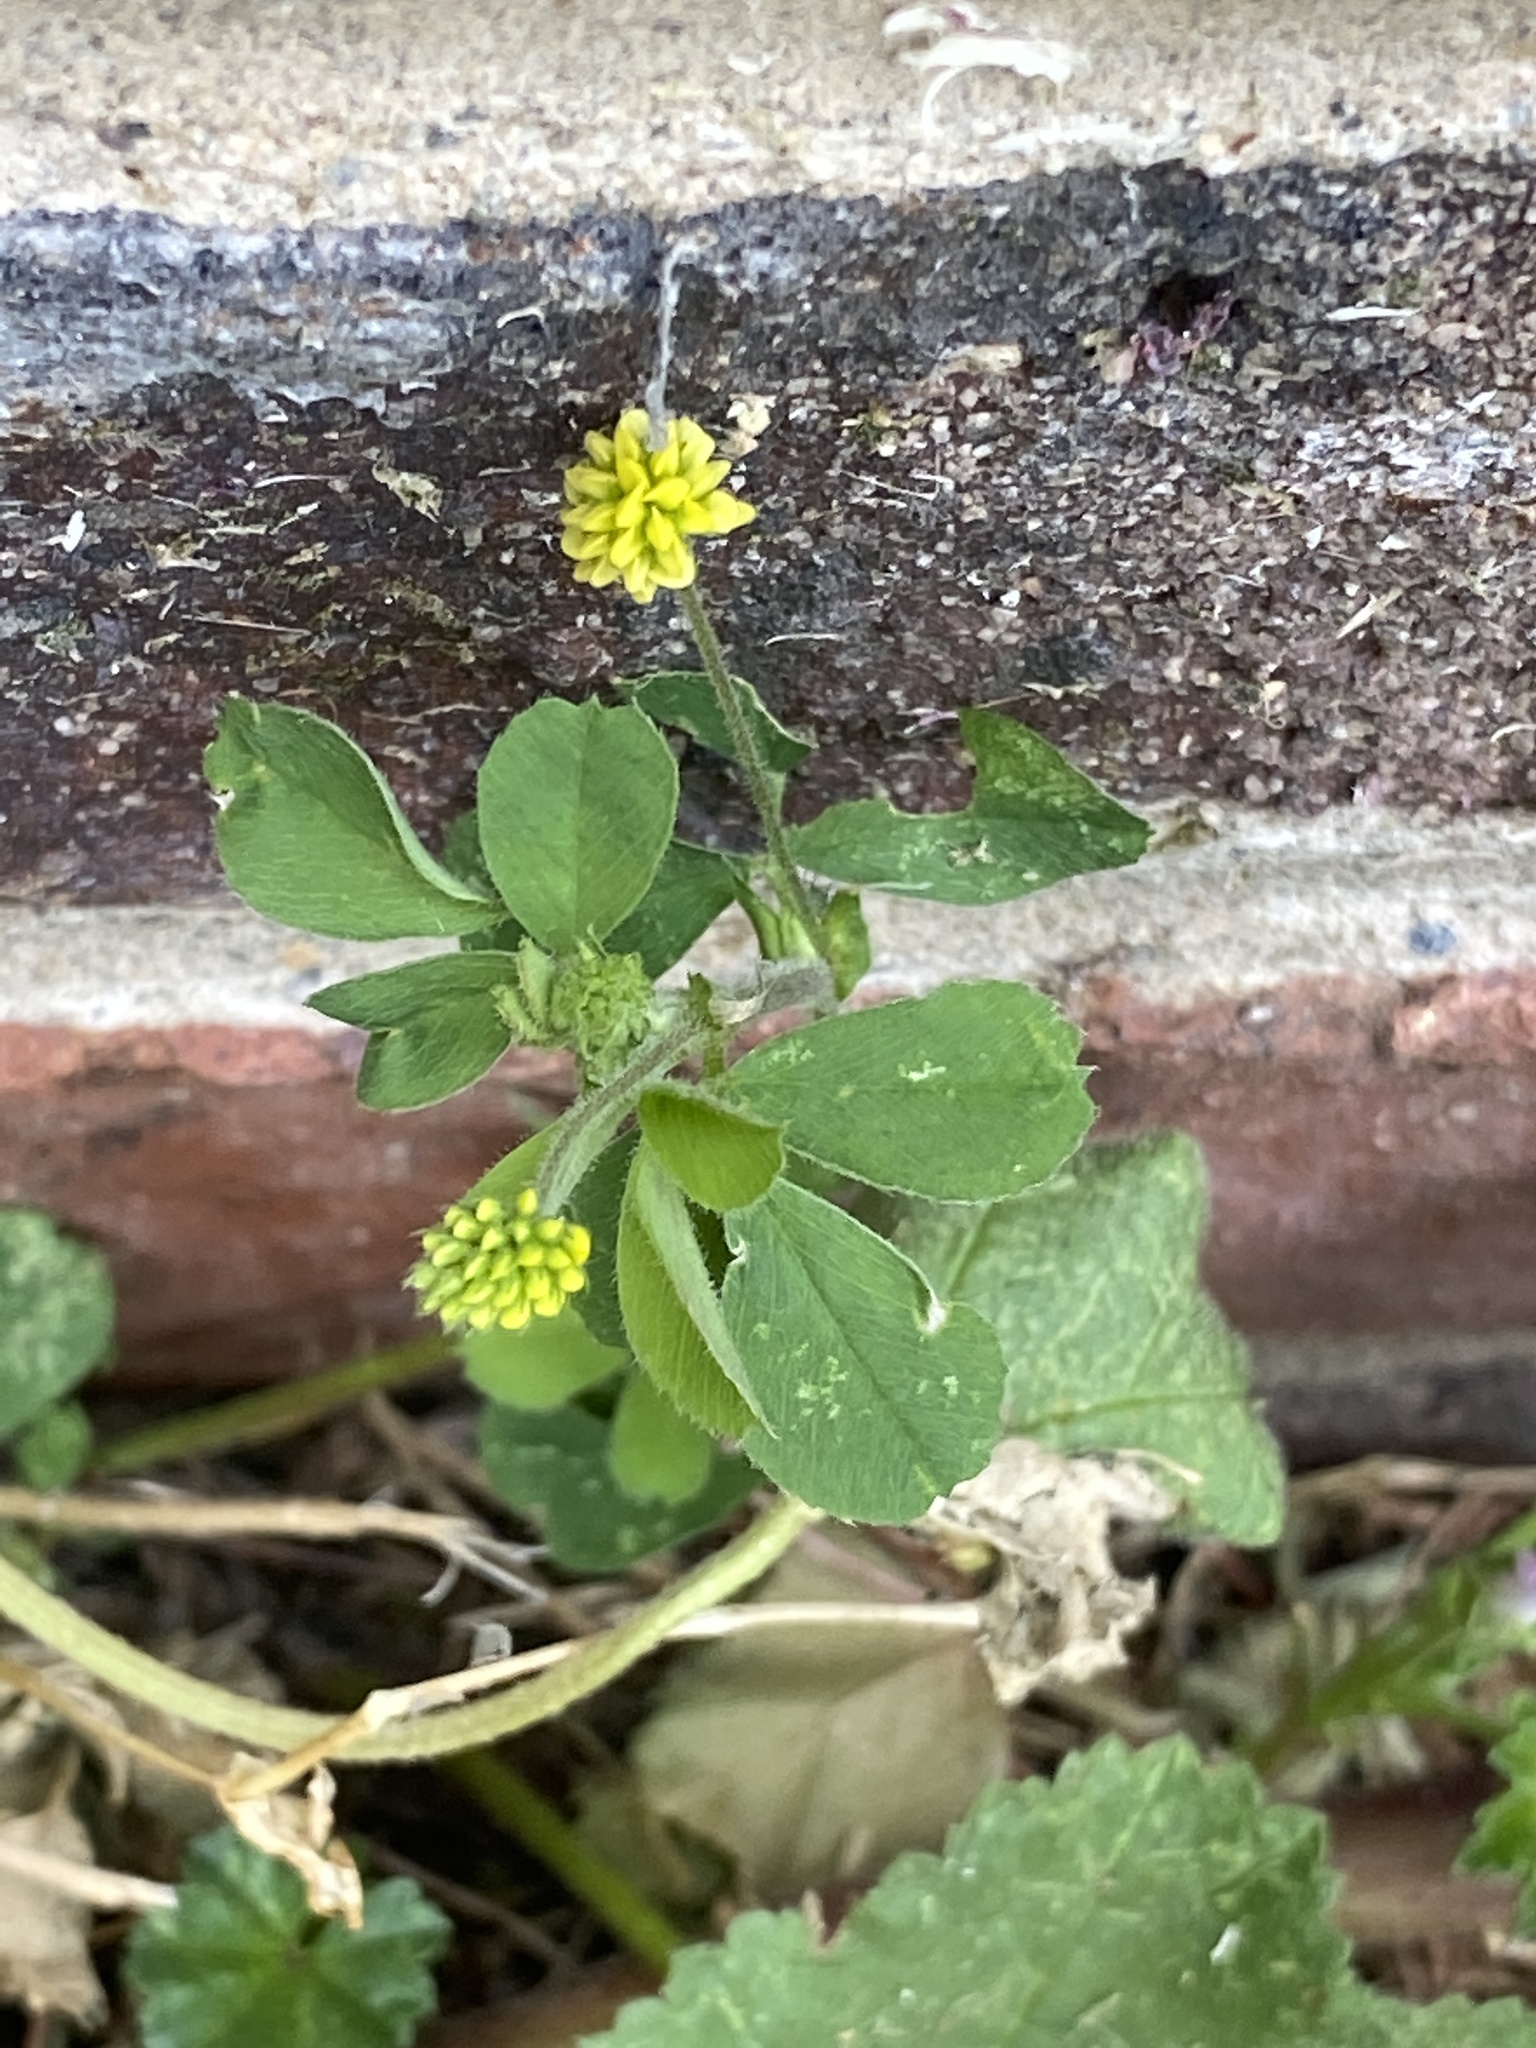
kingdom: Plantae
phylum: Tracheophyta
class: Magnoliopsida
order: Fabales
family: Fabaceae
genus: Medicago
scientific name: Medicago lupulina
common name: Black medick
